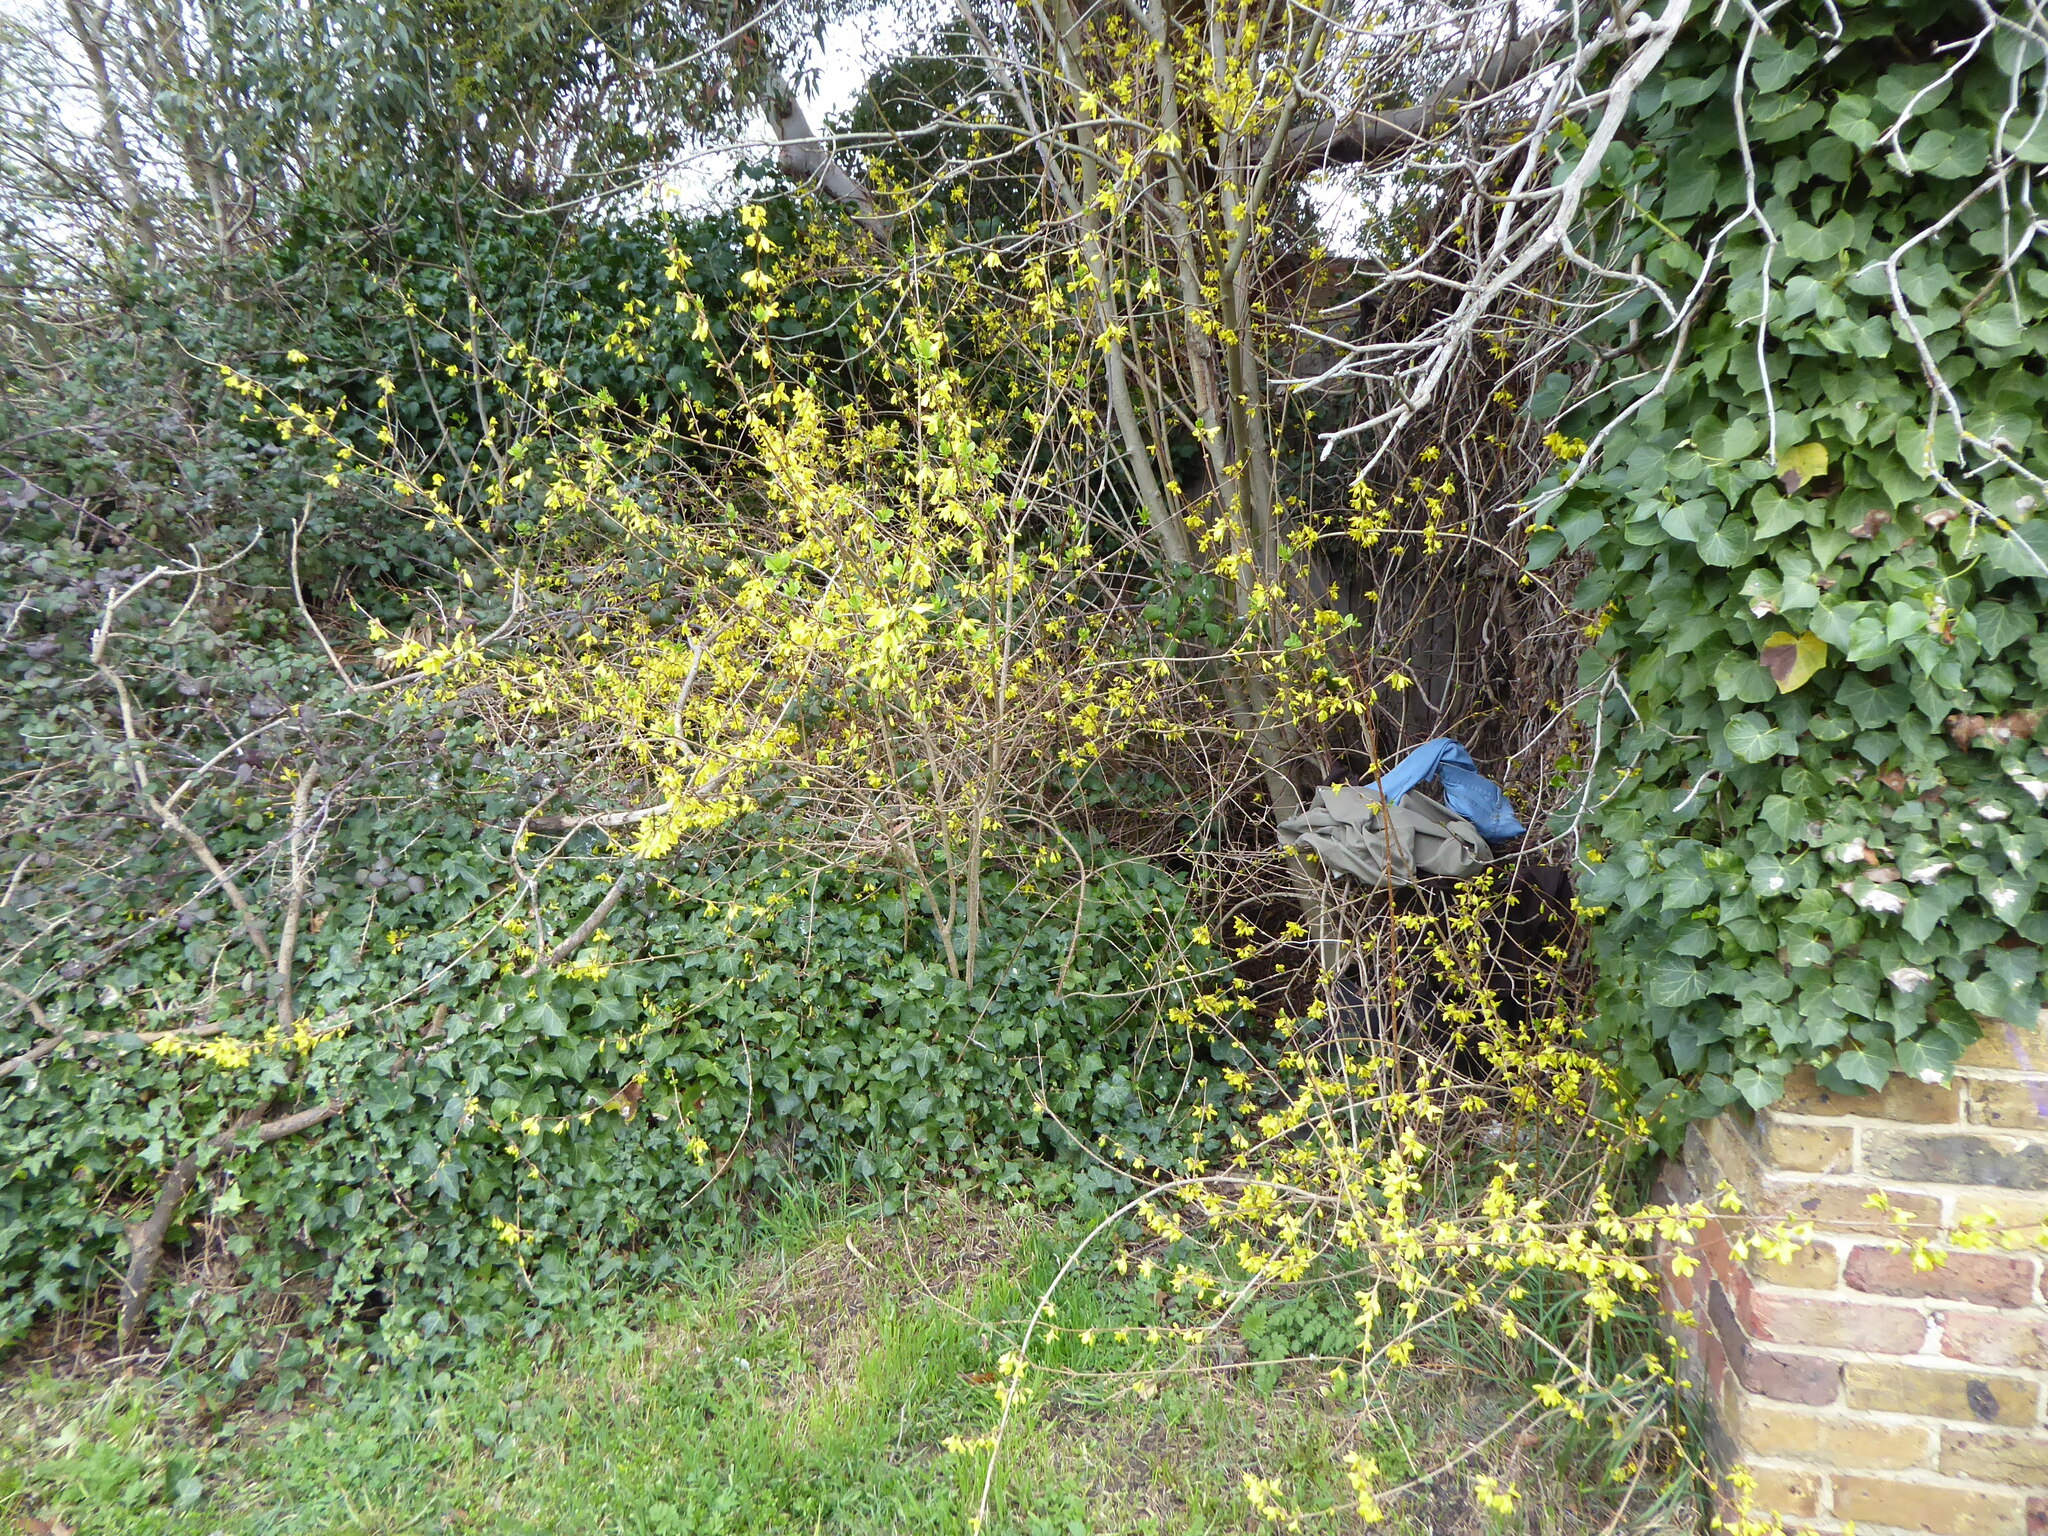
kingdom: Plantae
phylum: Tracheophyta
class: Magnoliopsida
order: Lamiales
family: Oleaceae
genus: Forsythia
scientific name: Forsythia
